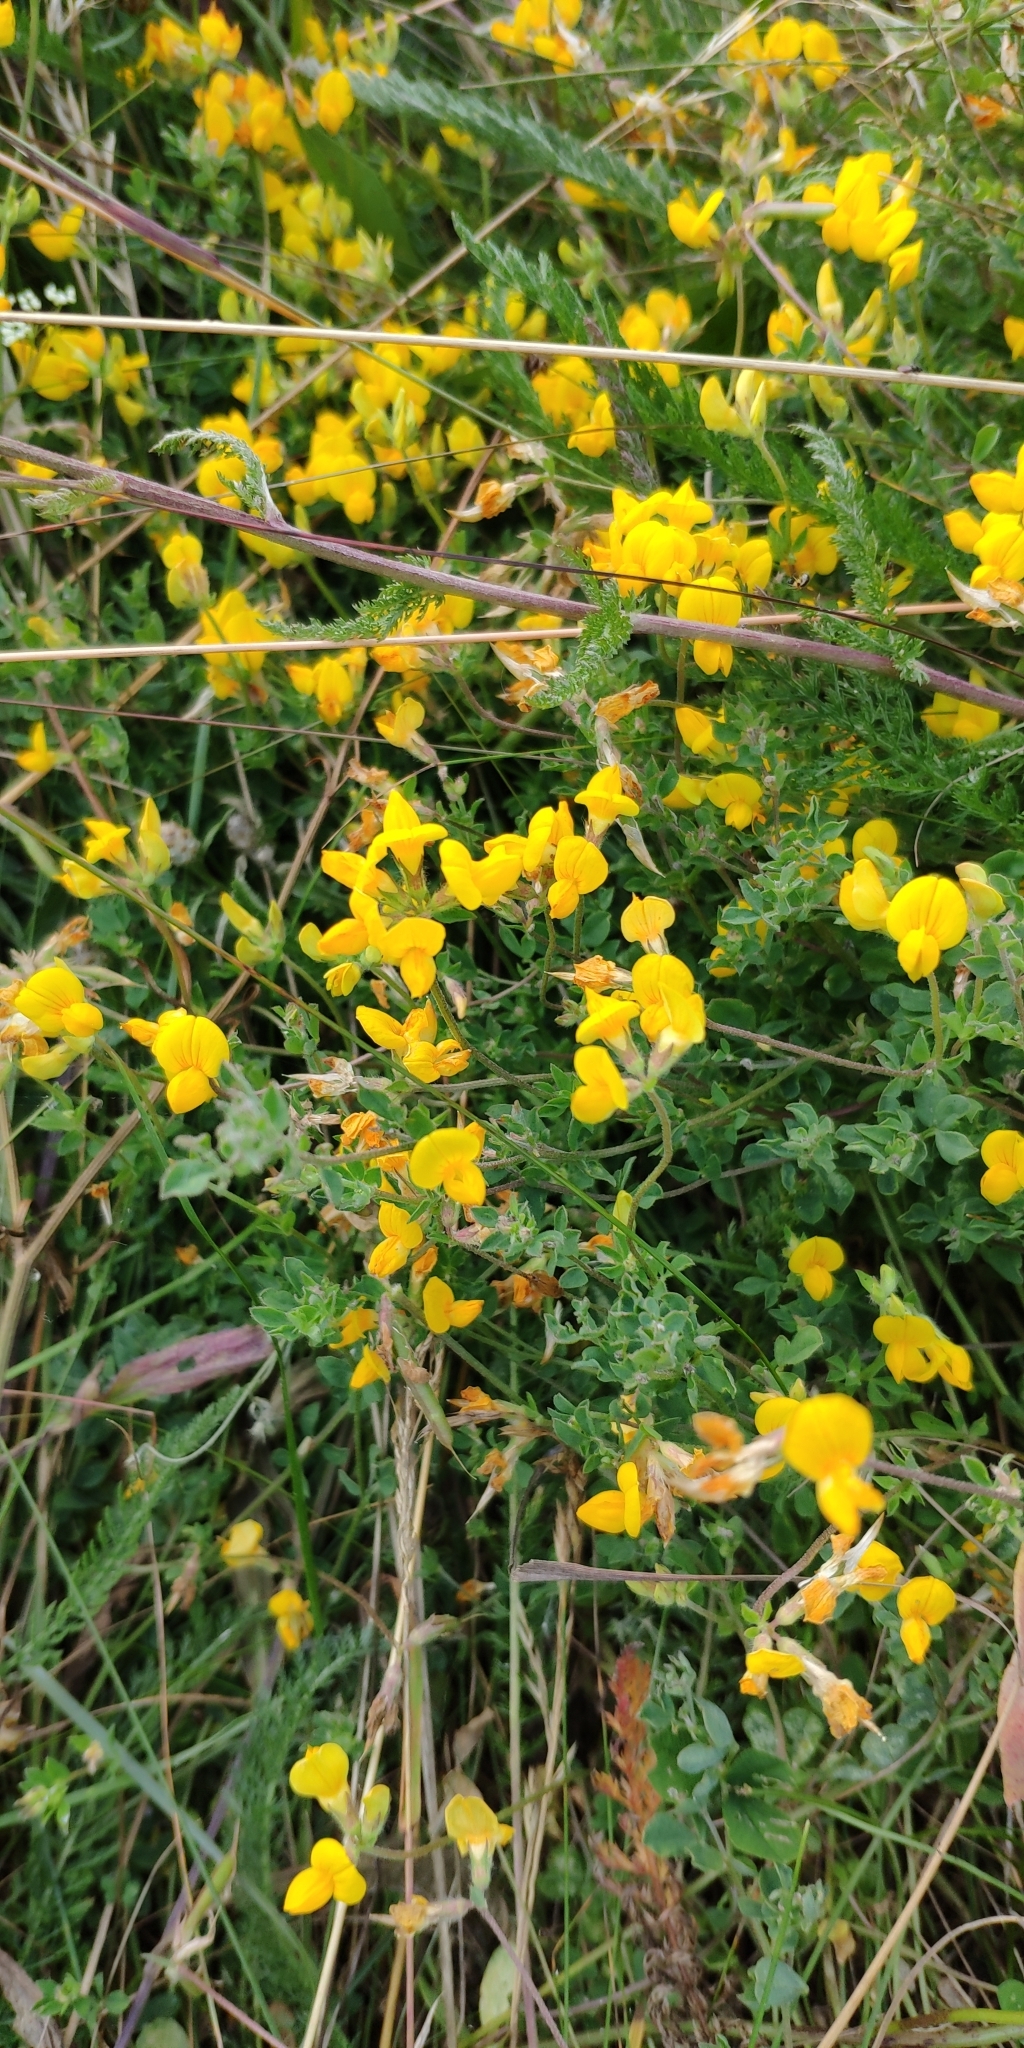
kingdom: Plantae
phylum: Tracheophyta
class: Magnoliopsida
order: Fabales
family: Fabaceae
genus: Lotus
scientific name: Lotus corniculatus
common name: Common bird's-foot-trefoil
